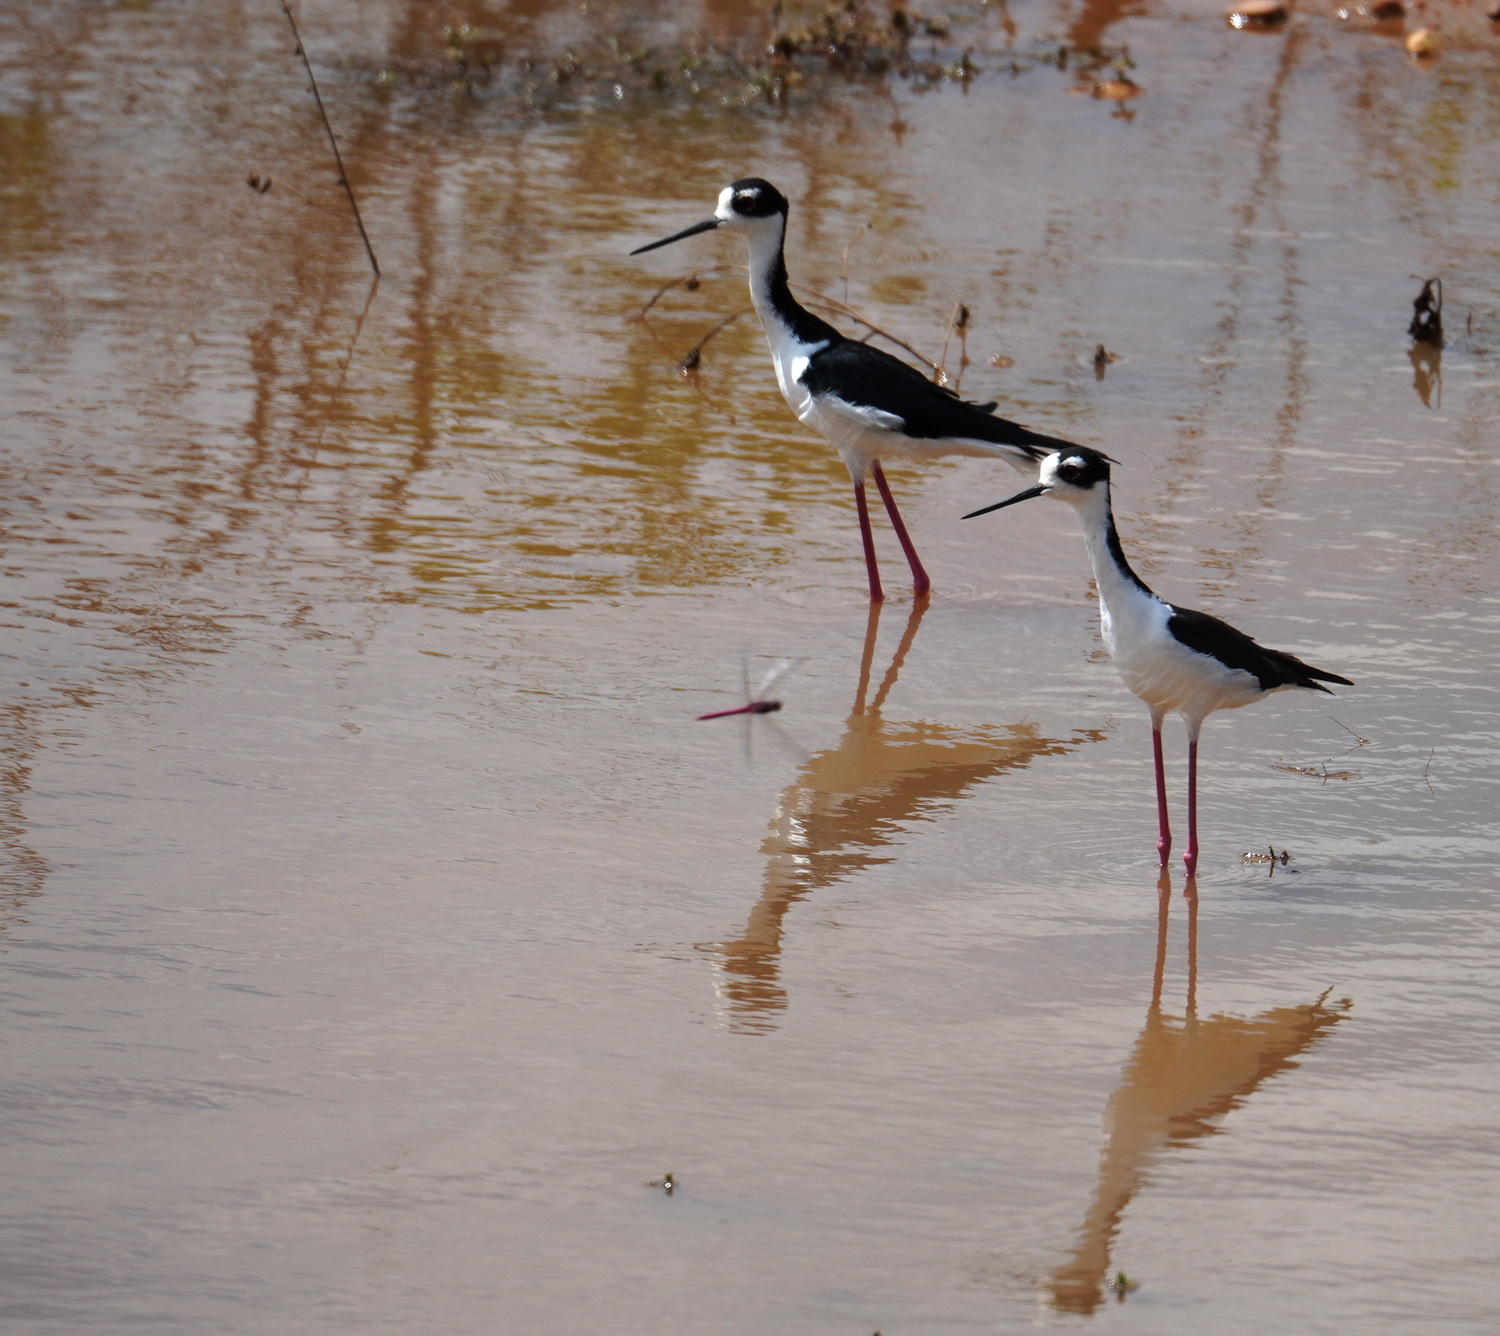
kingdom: Animalia
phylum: Chordata
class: Aves
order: Charadriiformes
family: Recurvirostridae
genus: Himantopus
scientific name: Himantopus mexicanus
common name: Black-necked stilt
